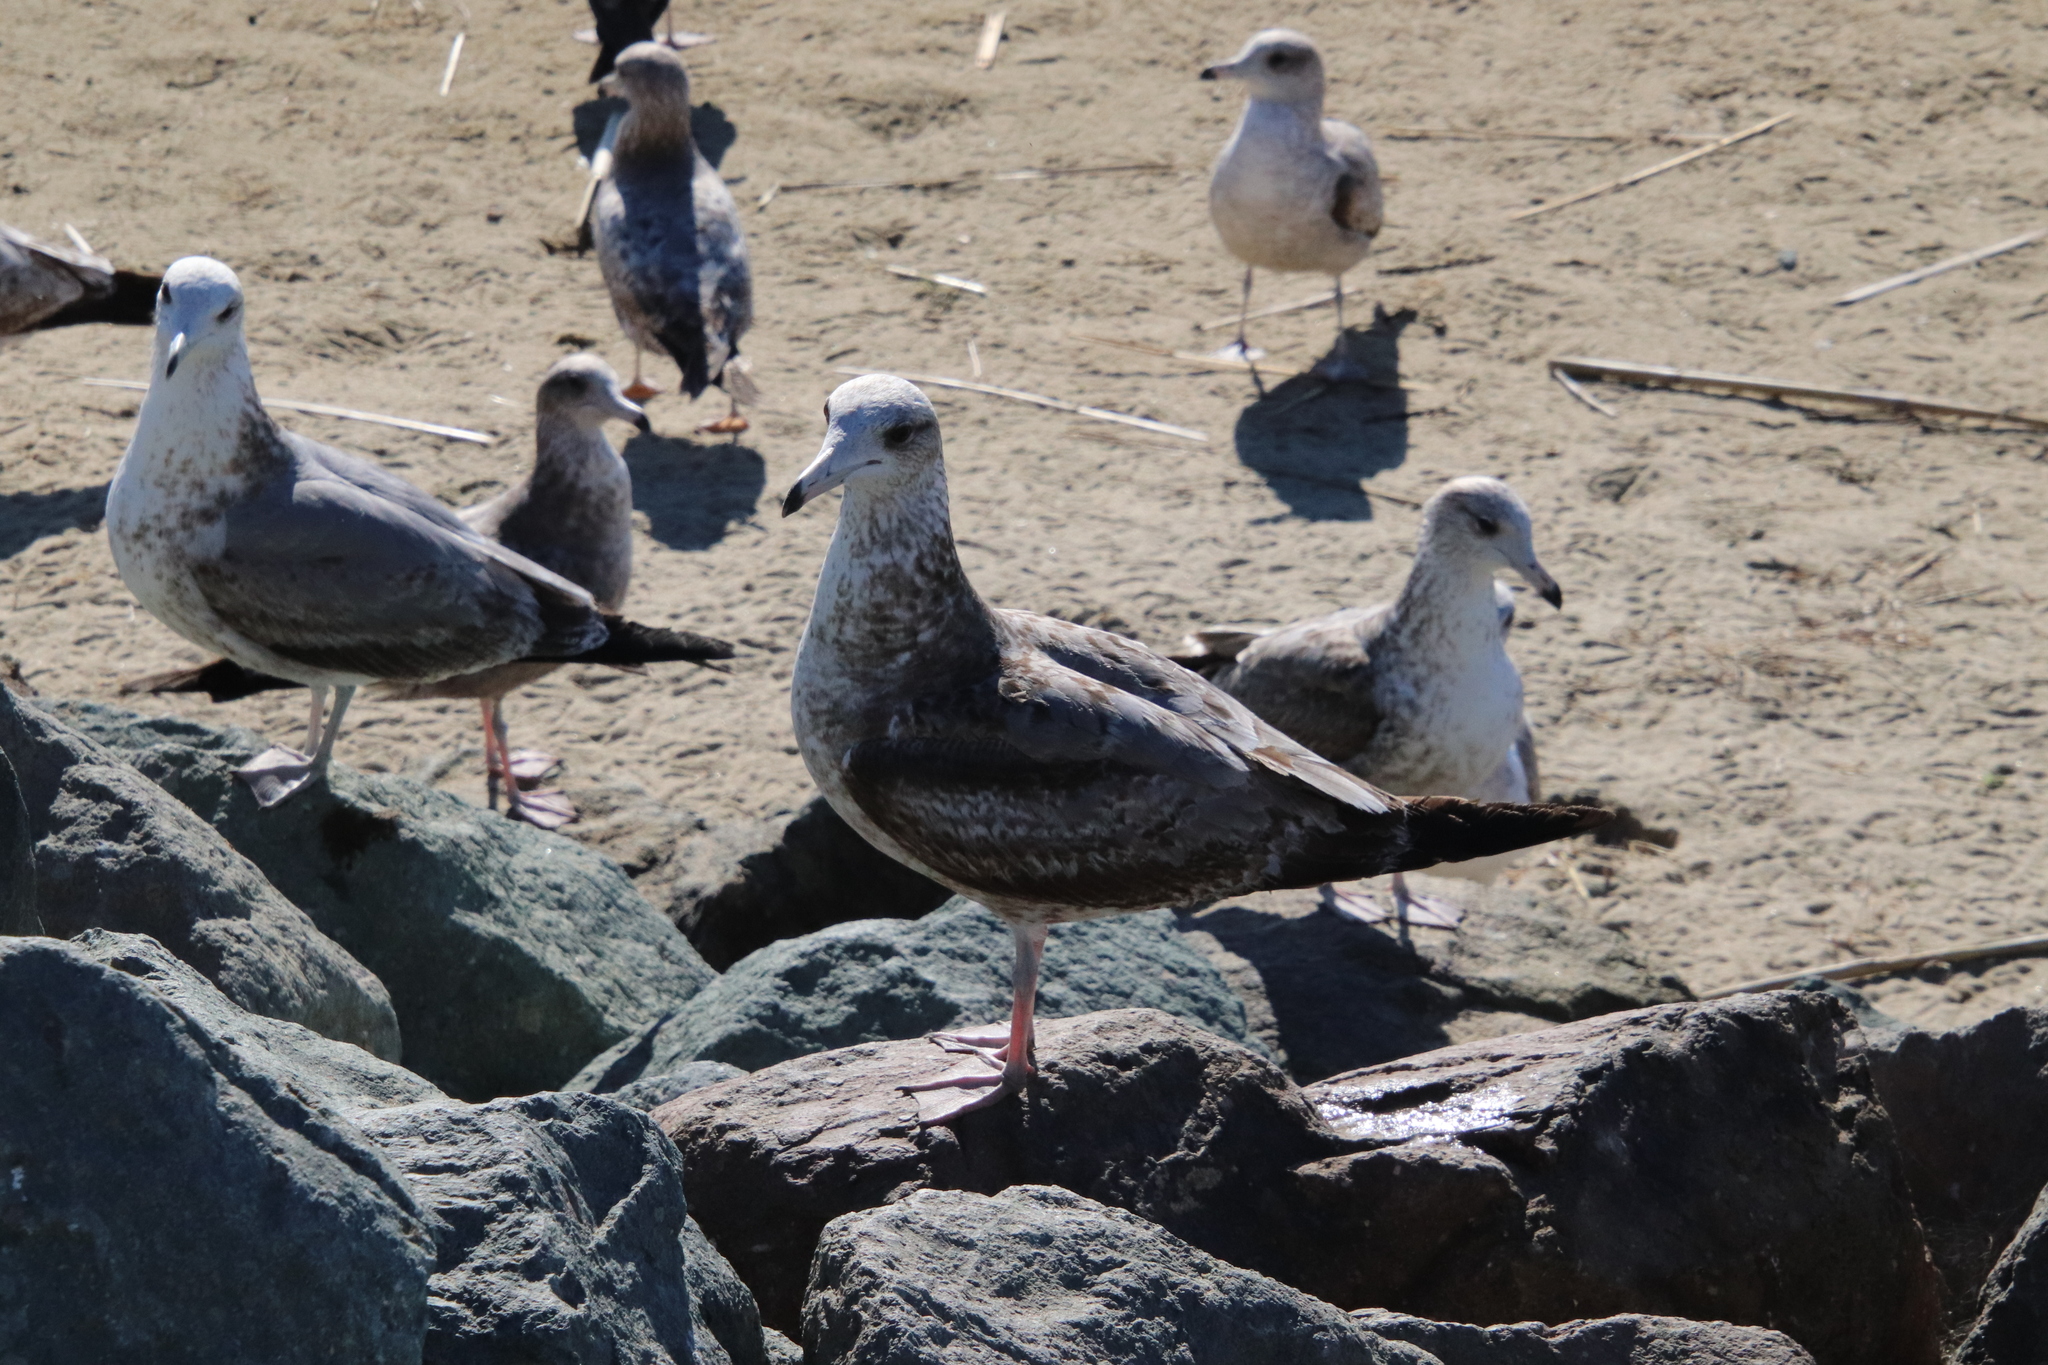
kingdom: Animalia
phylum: Chordata
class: Aves
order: Charadriiformes
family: Laridae
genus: Larus
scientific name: Larus californicus
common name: California gull
